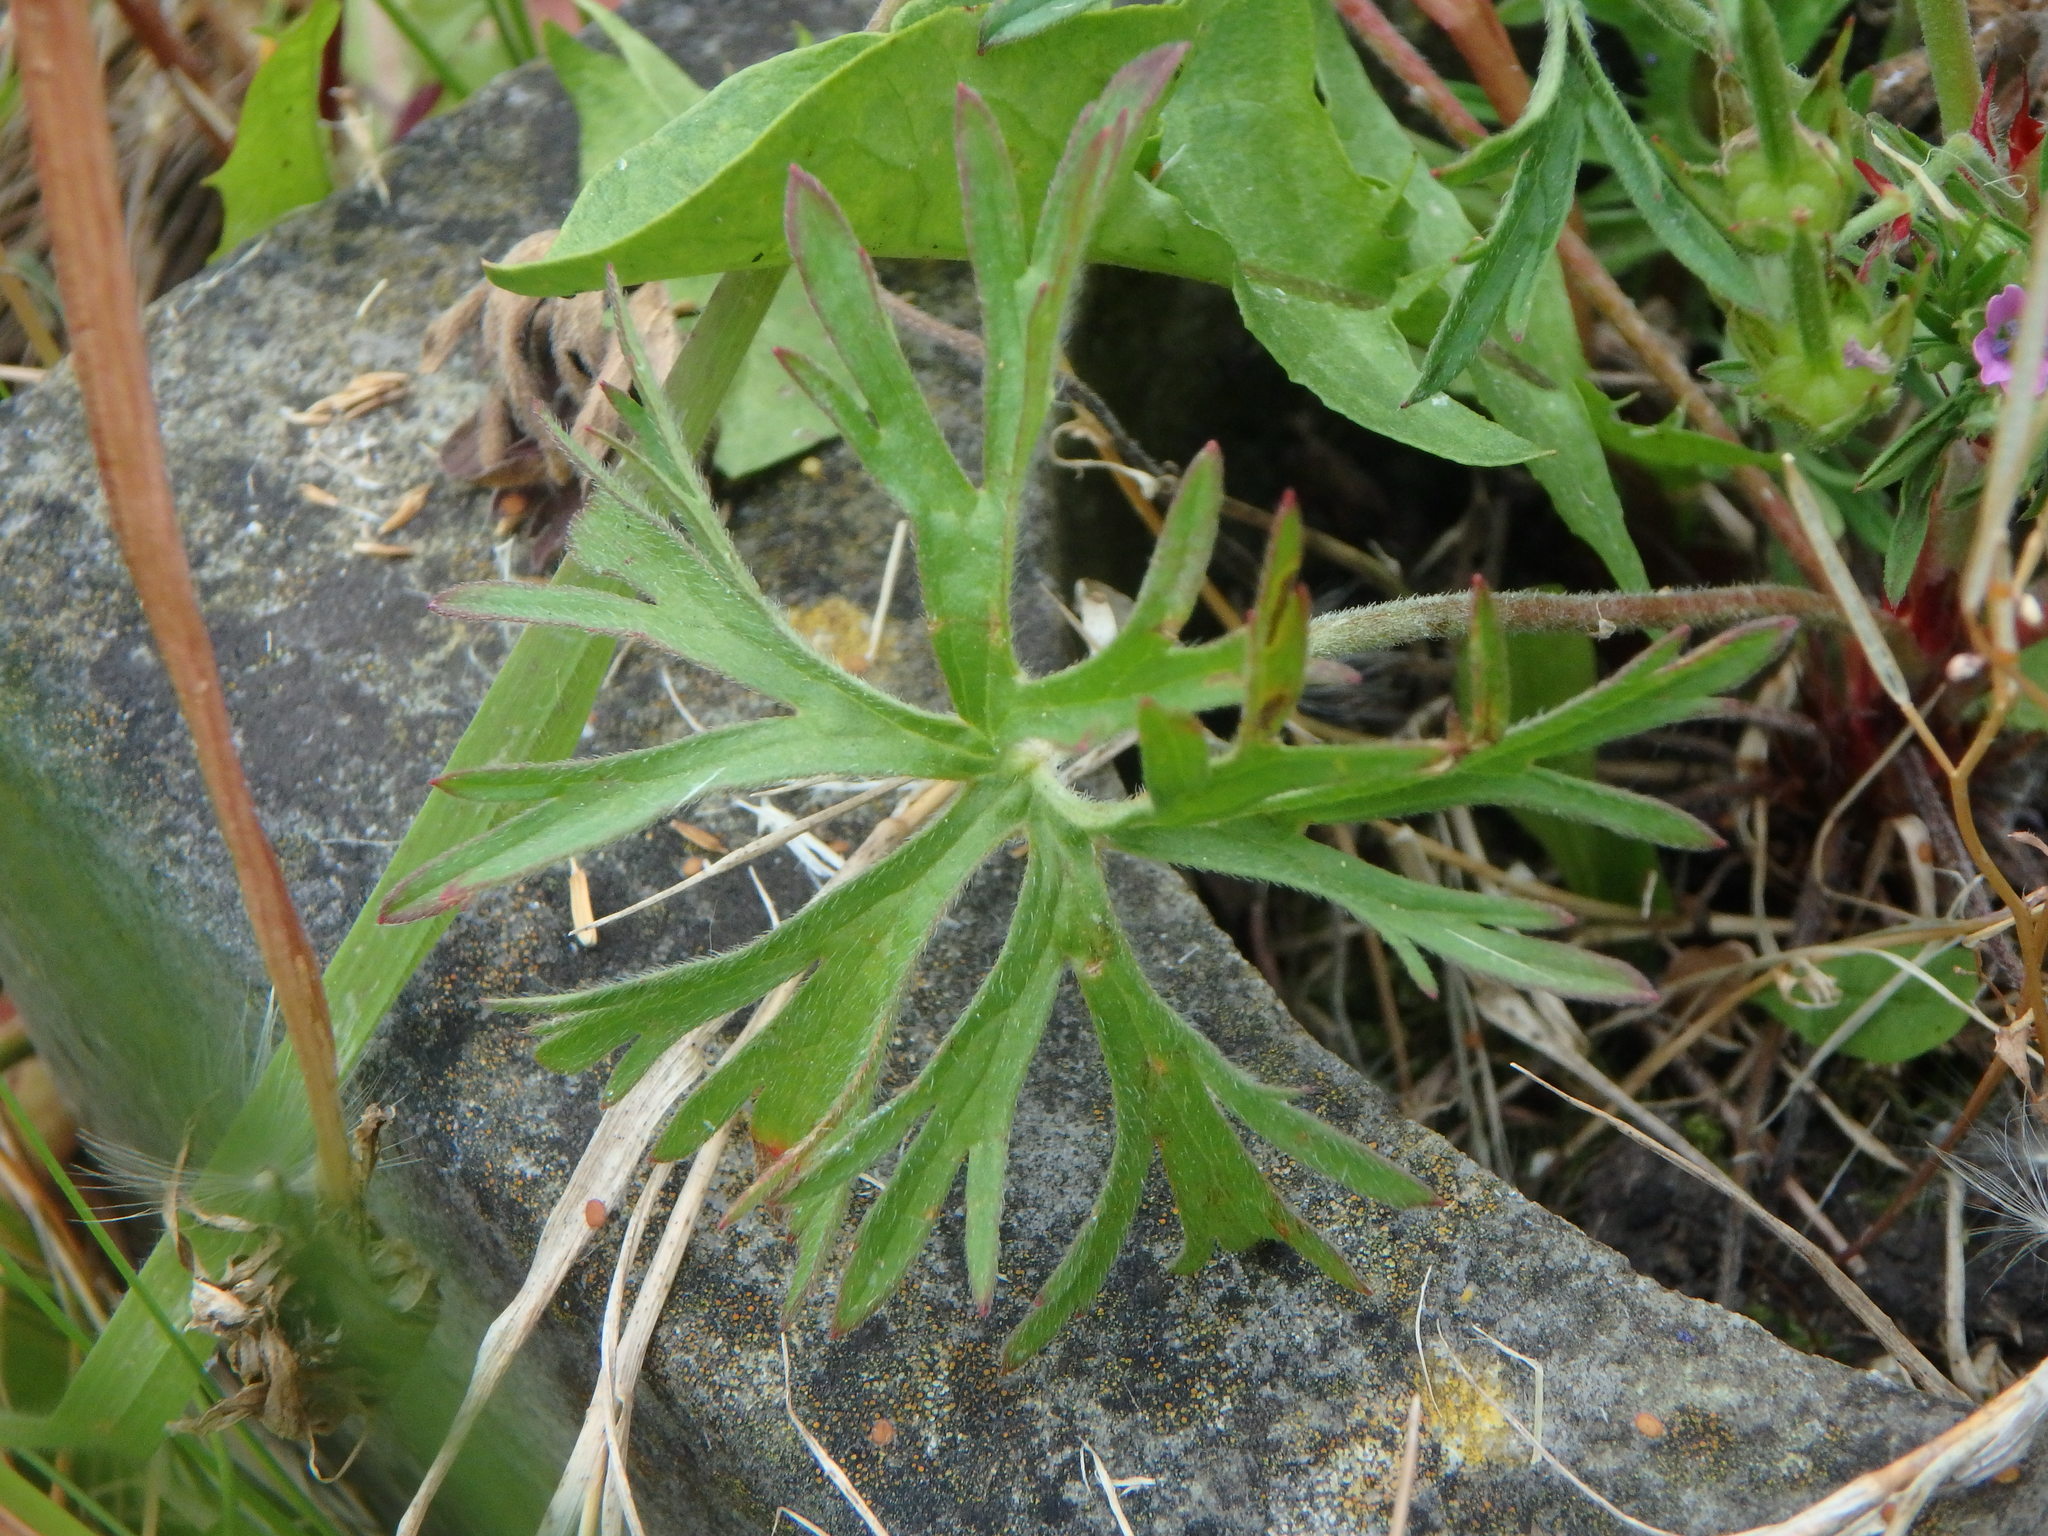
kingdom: Plantae
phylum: Tracheophyta
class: Magnoliopsida
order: Geraniales
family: Geraniaceae
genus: Geranium
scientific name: Geranium dissectum
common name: Cut-leaved crane's-bill
